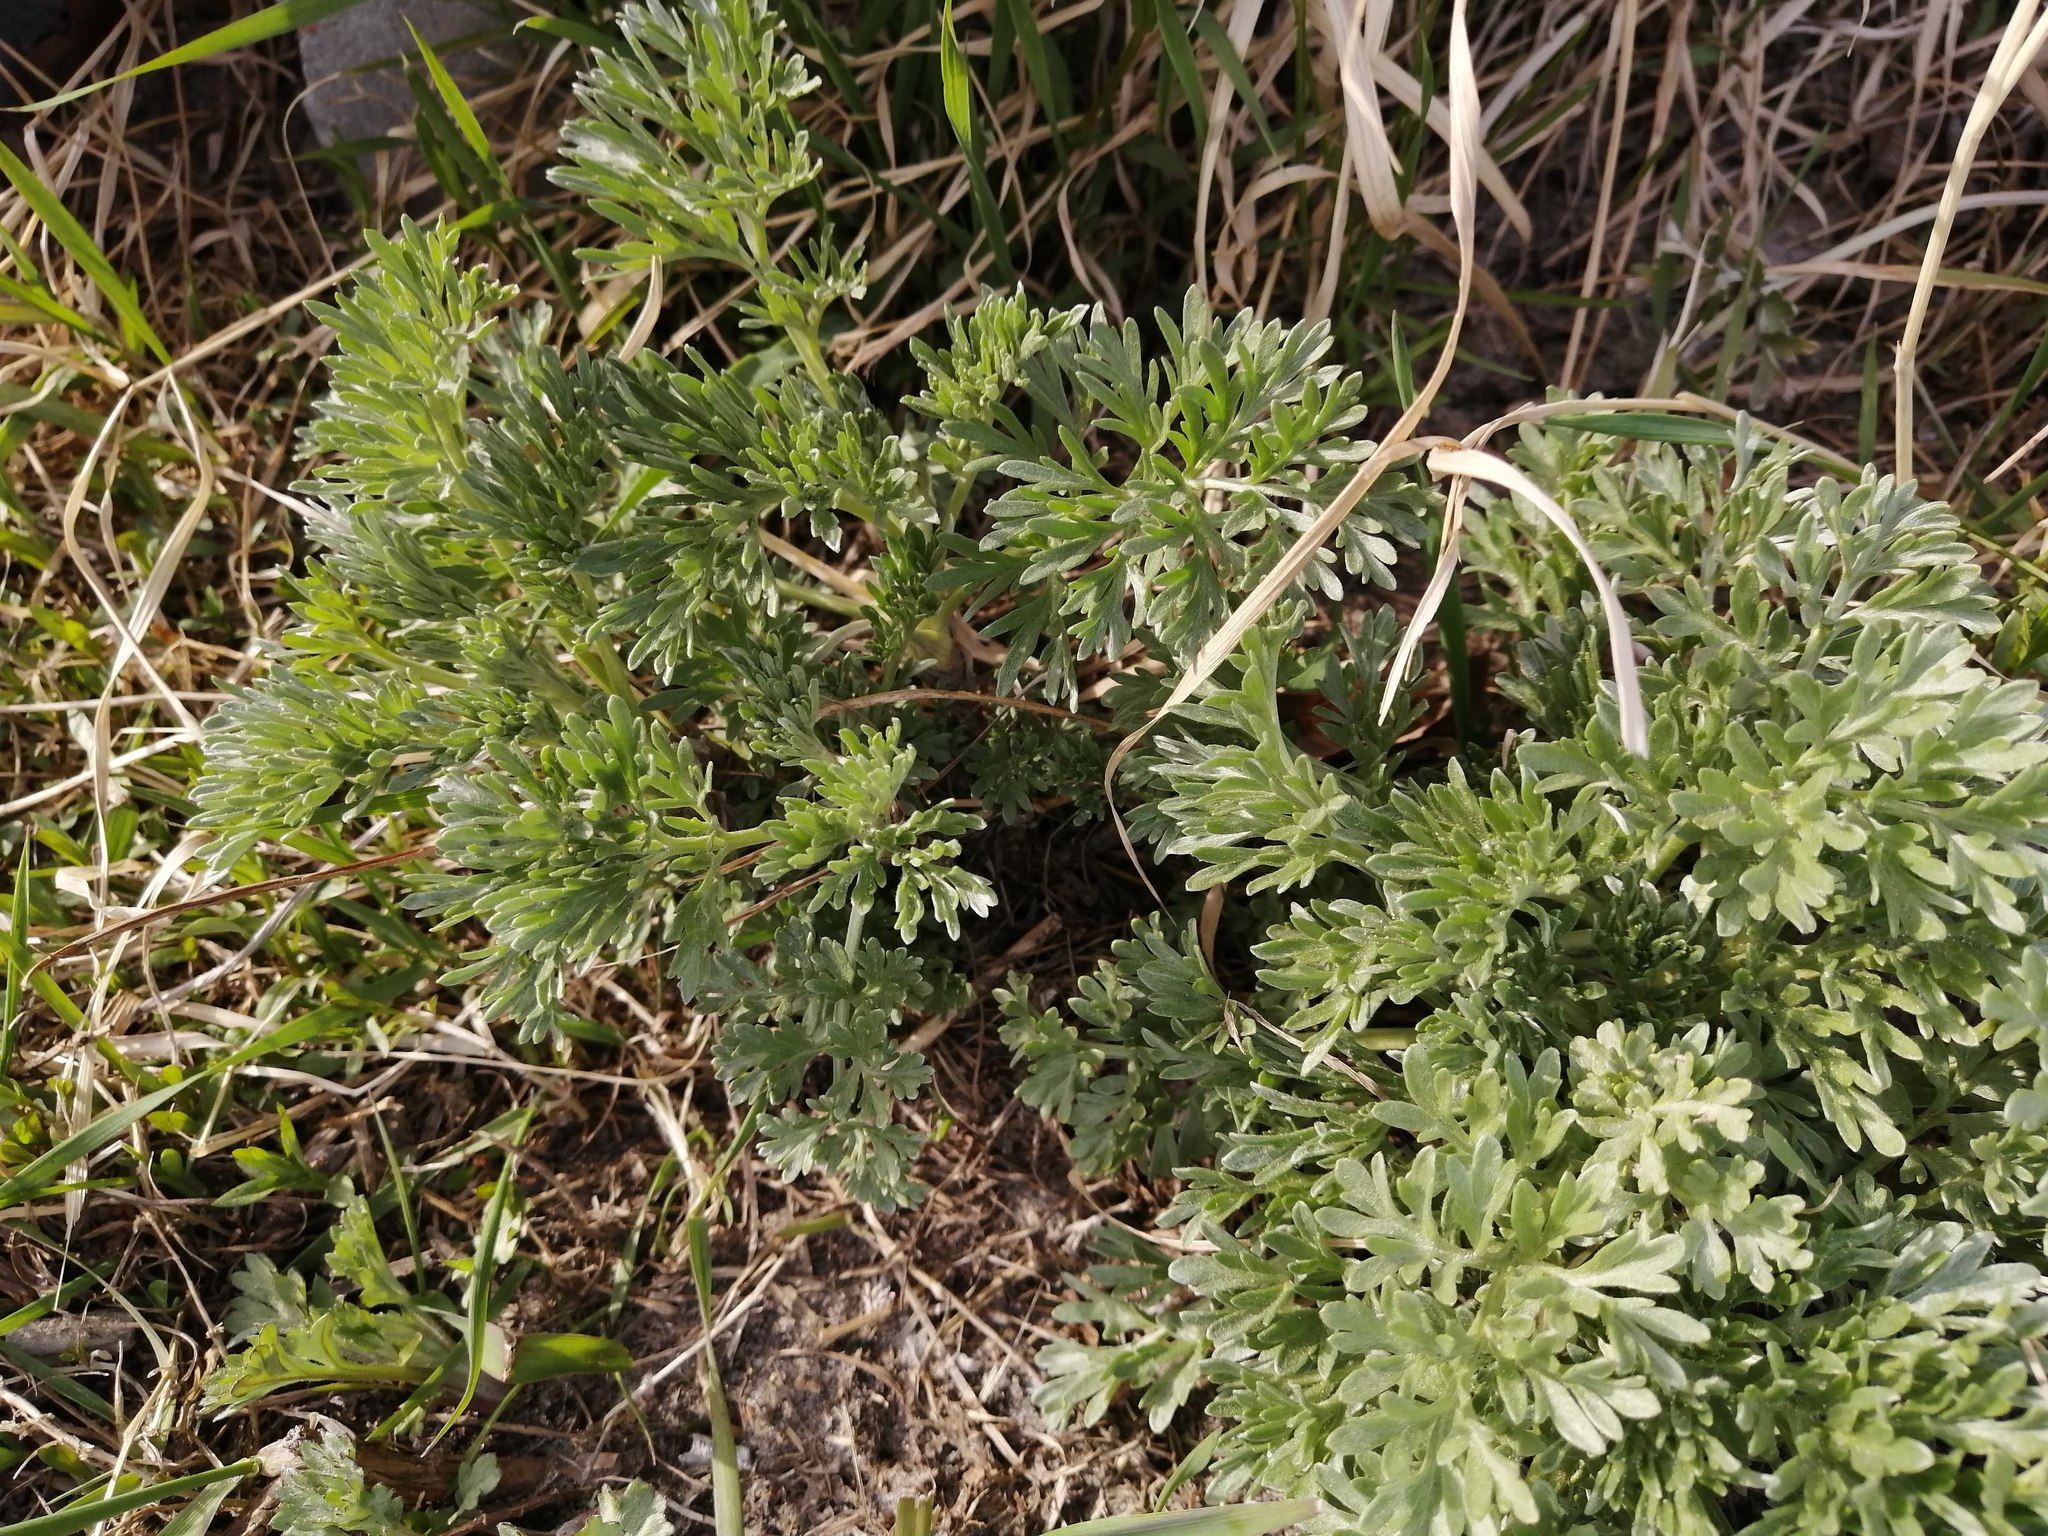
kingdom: Plantae
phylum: Tracheophyta
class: Magnoliopsida
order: Asterales
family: Asteraceae
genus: Artemisia
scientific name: Artemisia absinthium
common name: Wormwood
